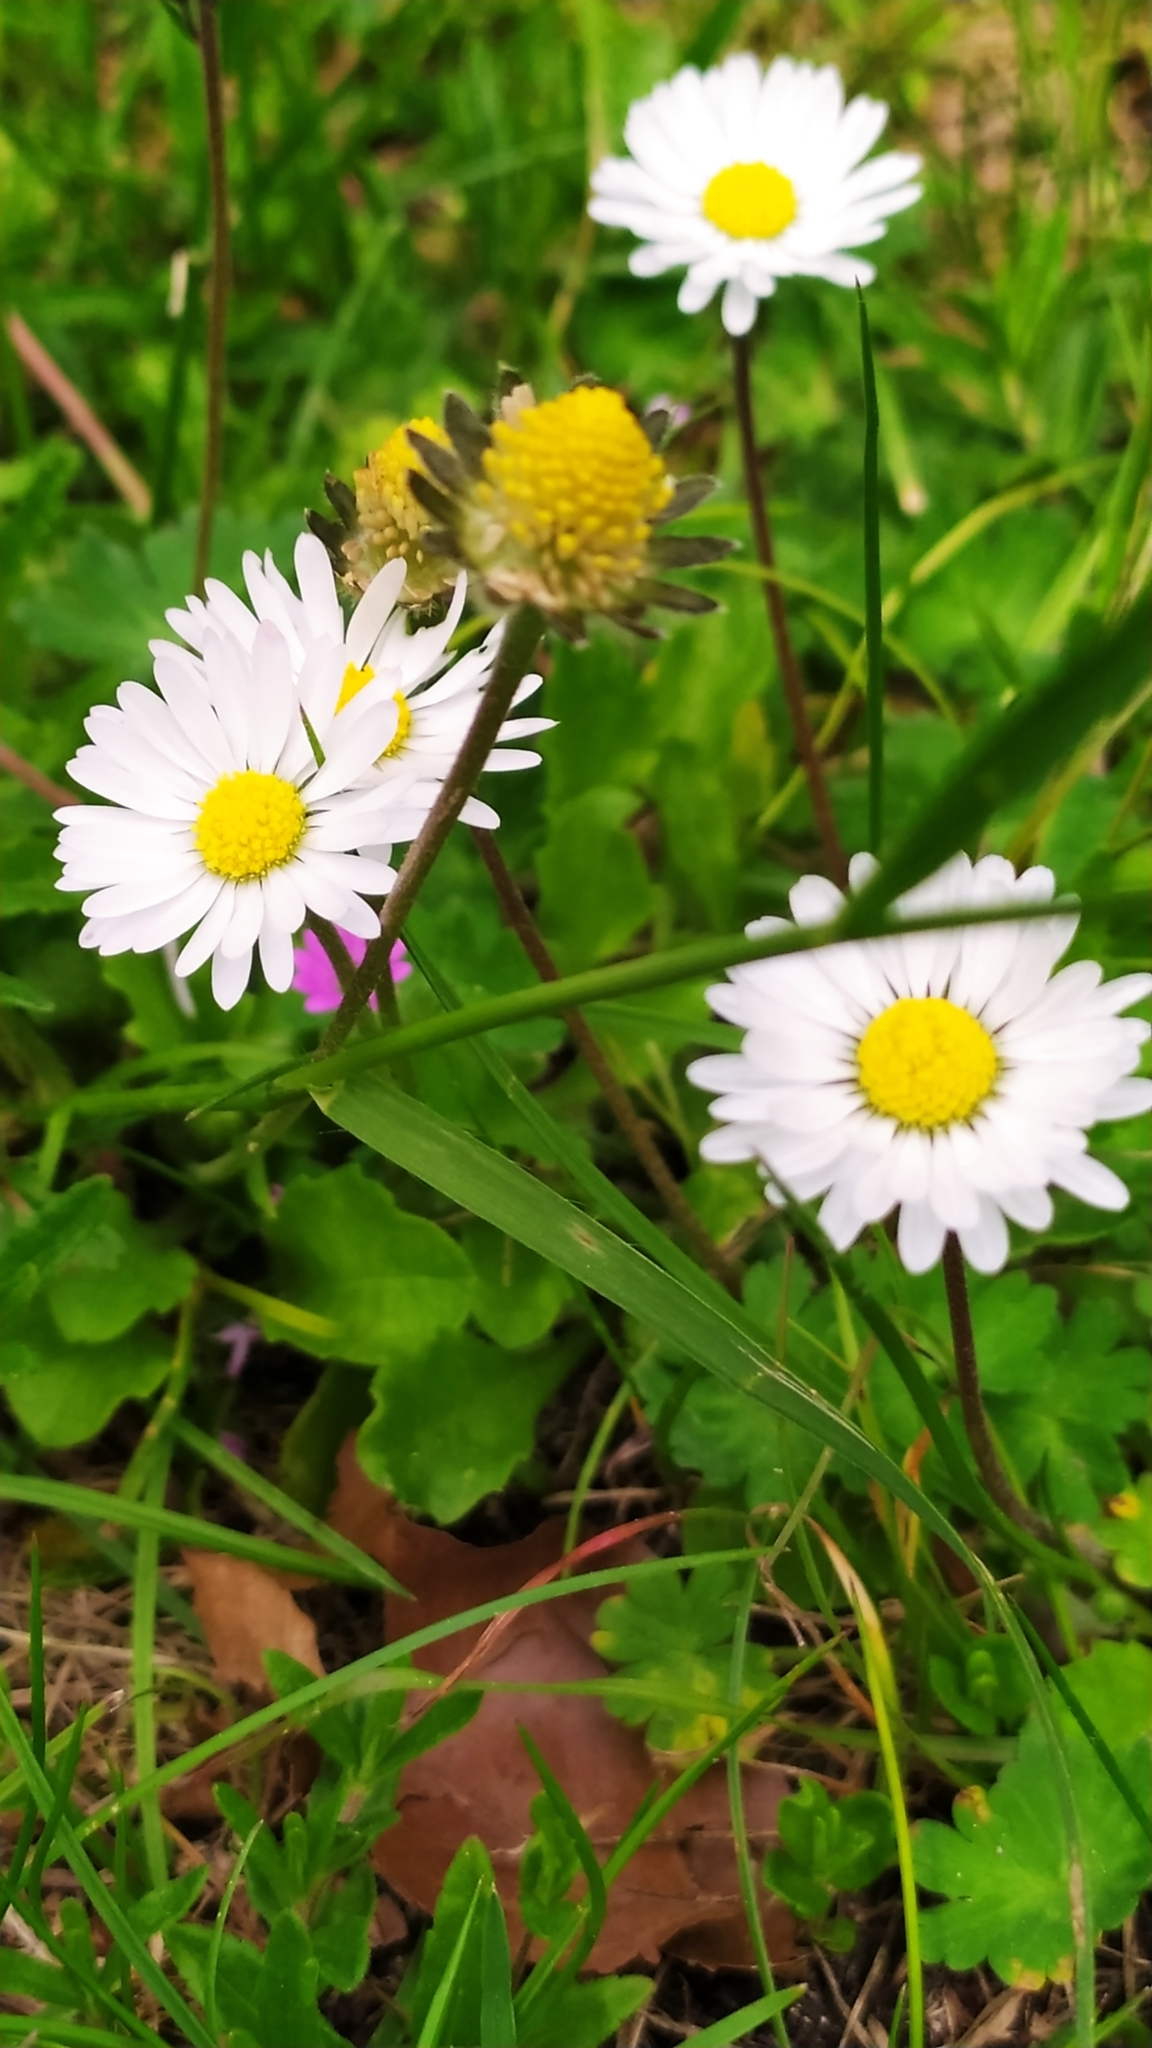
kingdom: Plantae
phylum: Tracheophyta
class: Magnoliopsida
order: Asterales
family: Asteraceae
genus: Bellis
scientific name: Bellis perennis
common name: Lawndaisy
